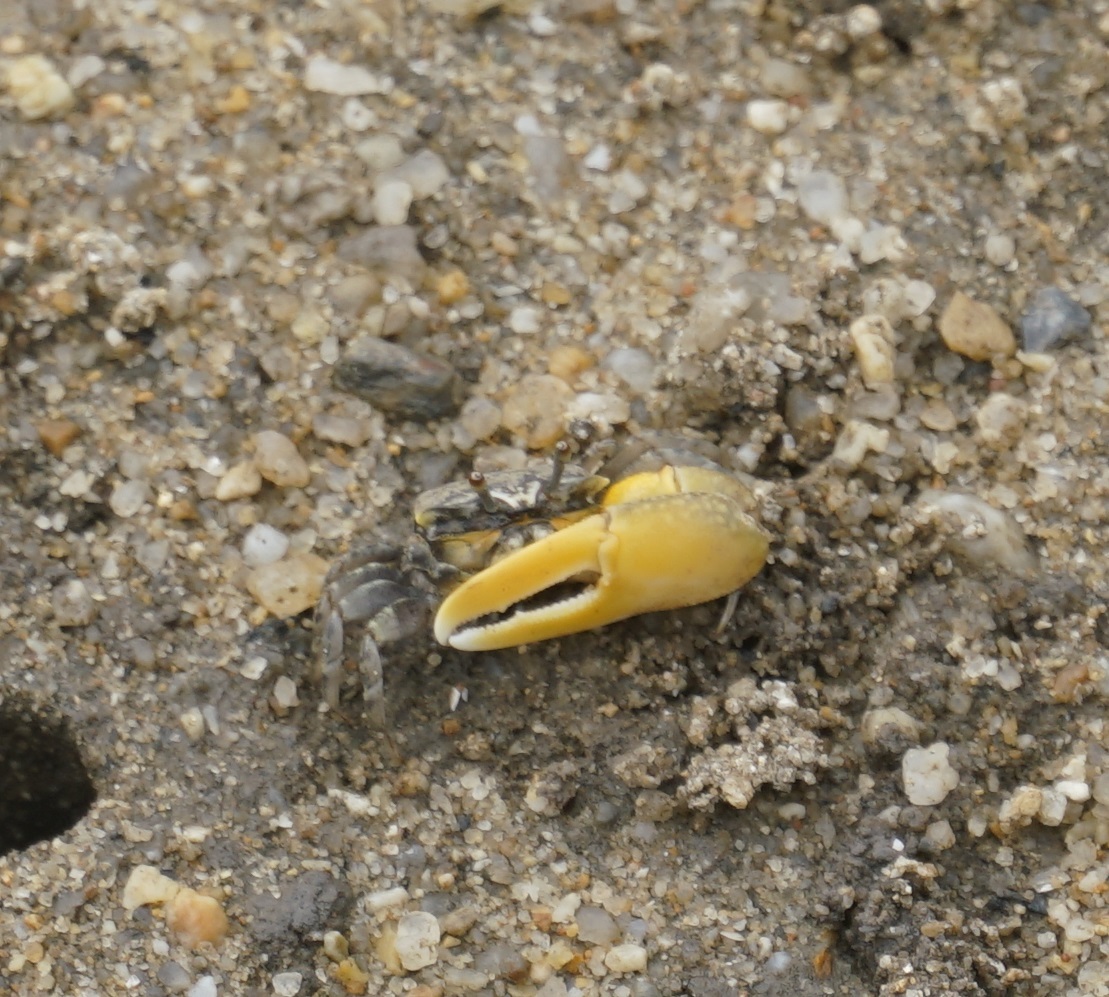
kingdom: Animalia
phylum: Arthropoda
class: Malacostraca
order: Decapoda
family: Ocypodidae
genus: Austruca
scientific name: Austruca perplexa
